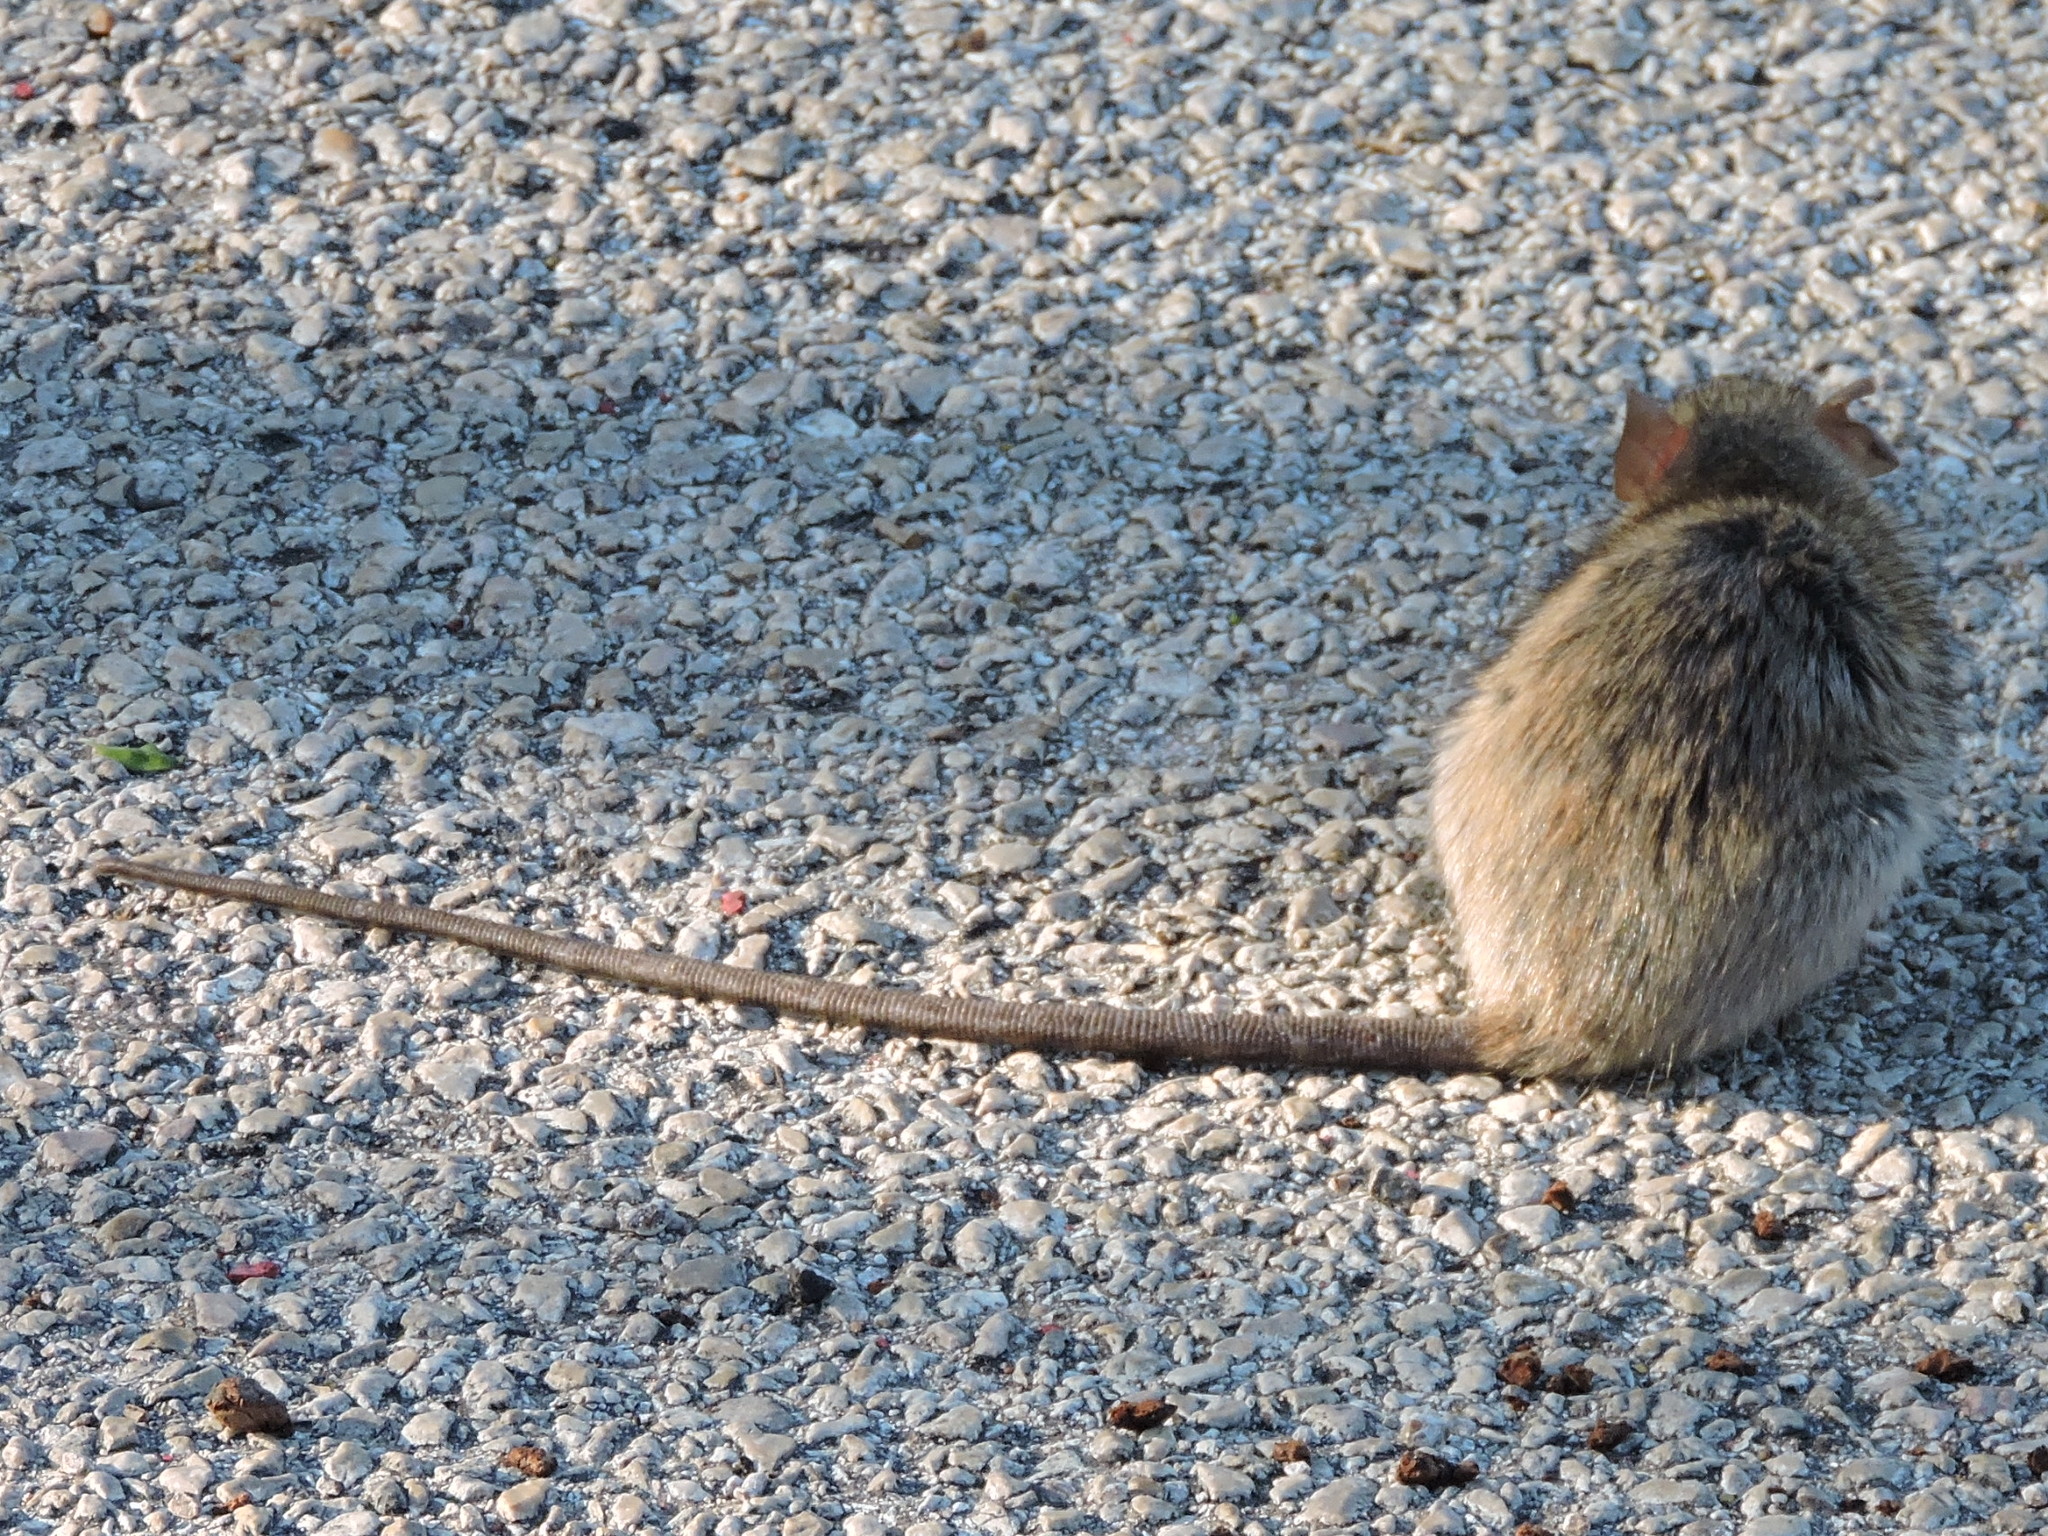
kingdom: Animalia
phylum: Chordata
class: Mammalia
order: Rodentia
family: Muridae
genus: Rattus
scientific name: Rattus rattus
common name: Black rat
